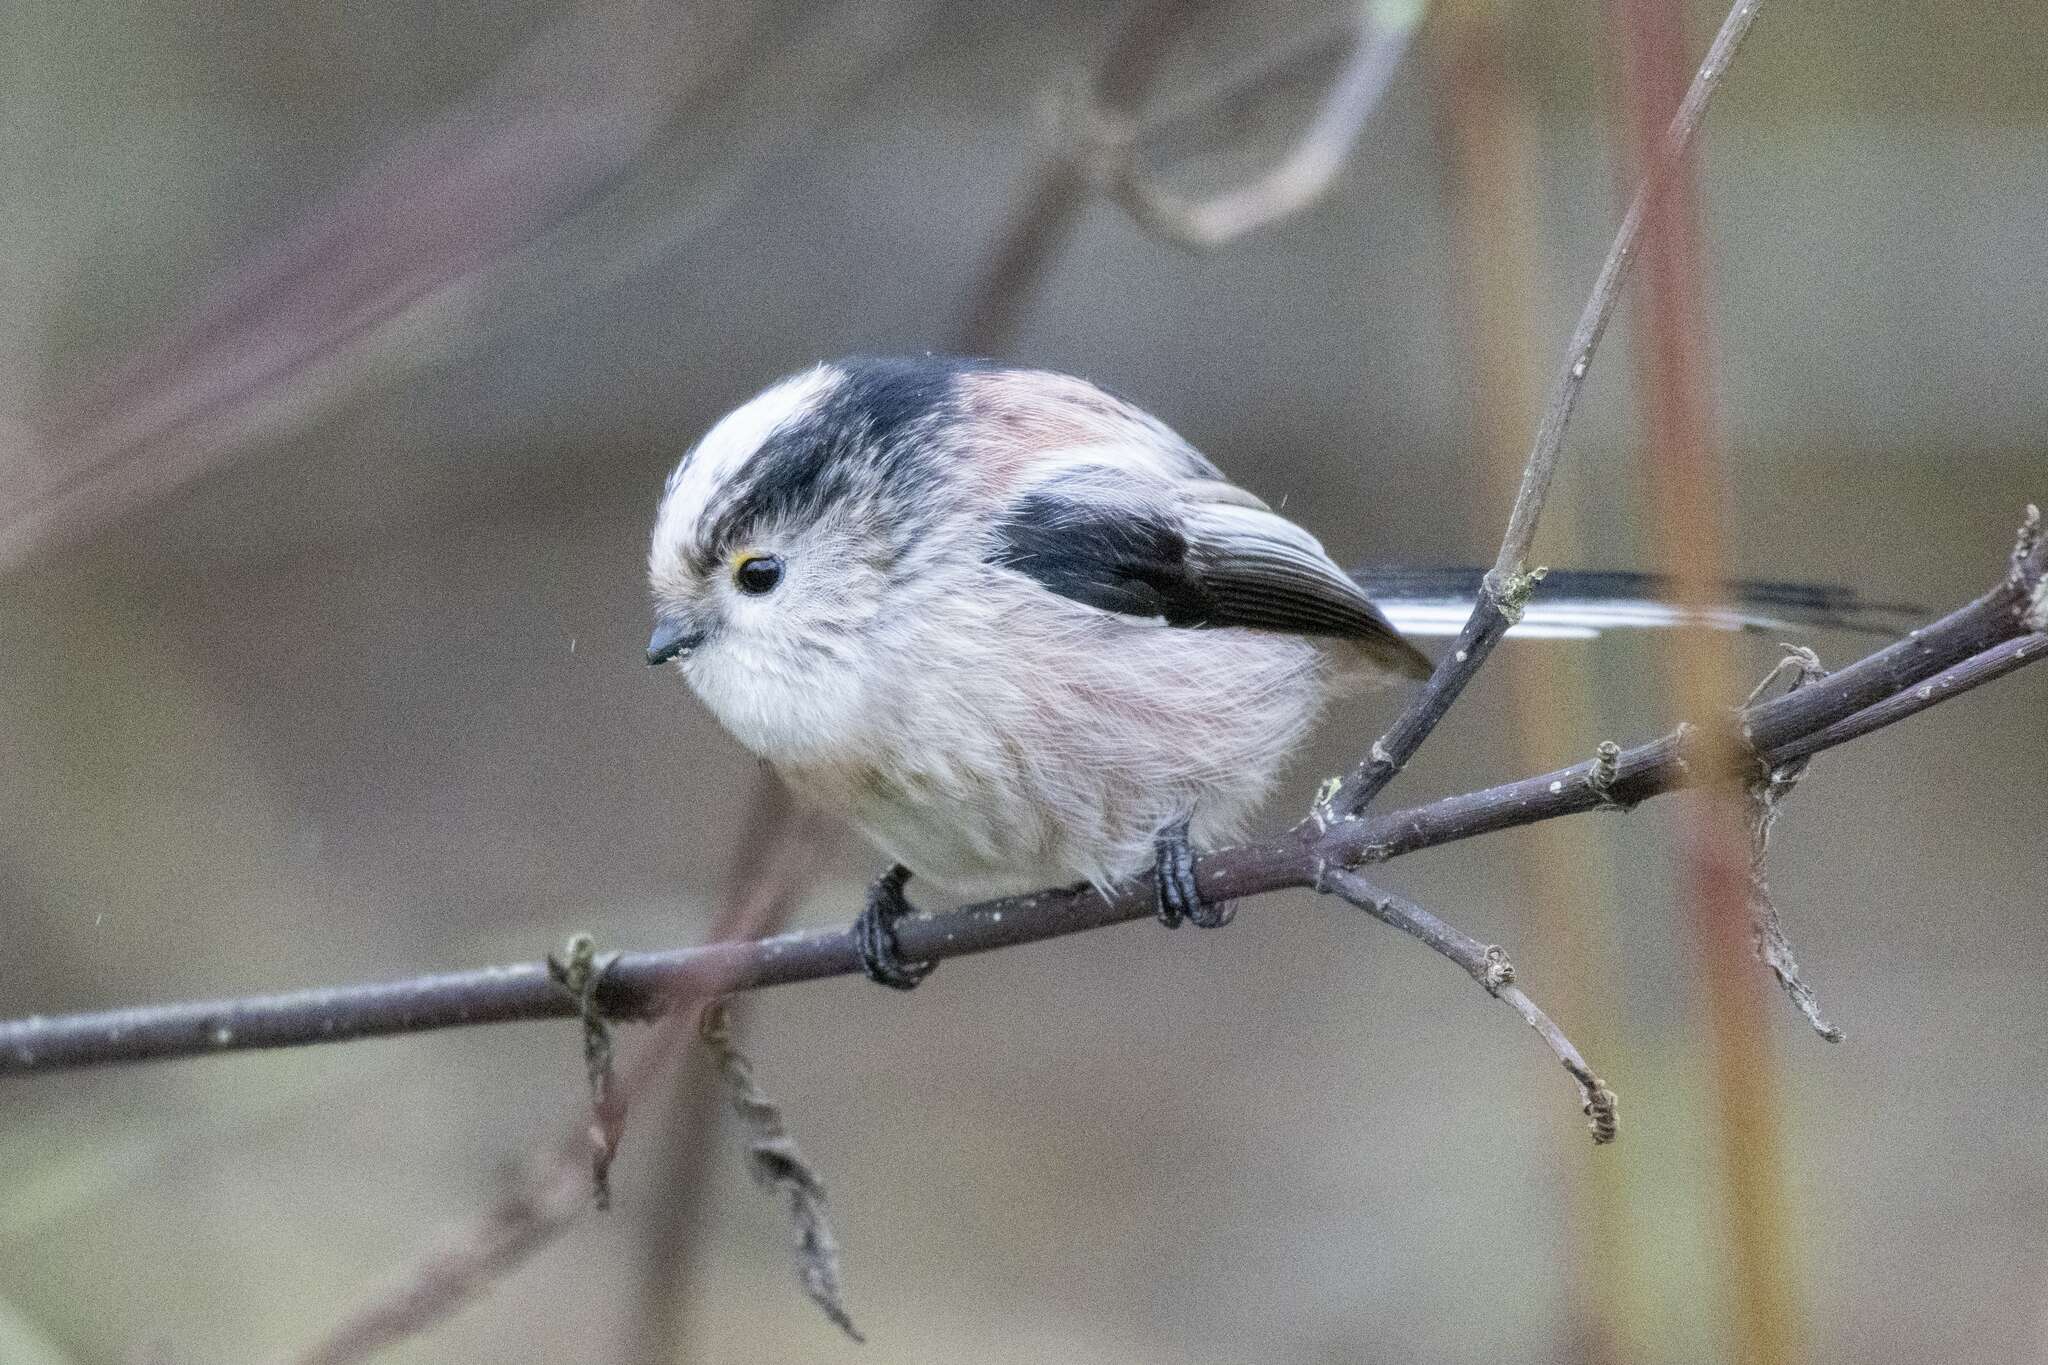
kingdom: Animalia
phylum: Chordata
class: Aves
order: Passeriformes
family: Aegithalidae
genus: Aegithalos
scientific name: Aegithalos caudatus
